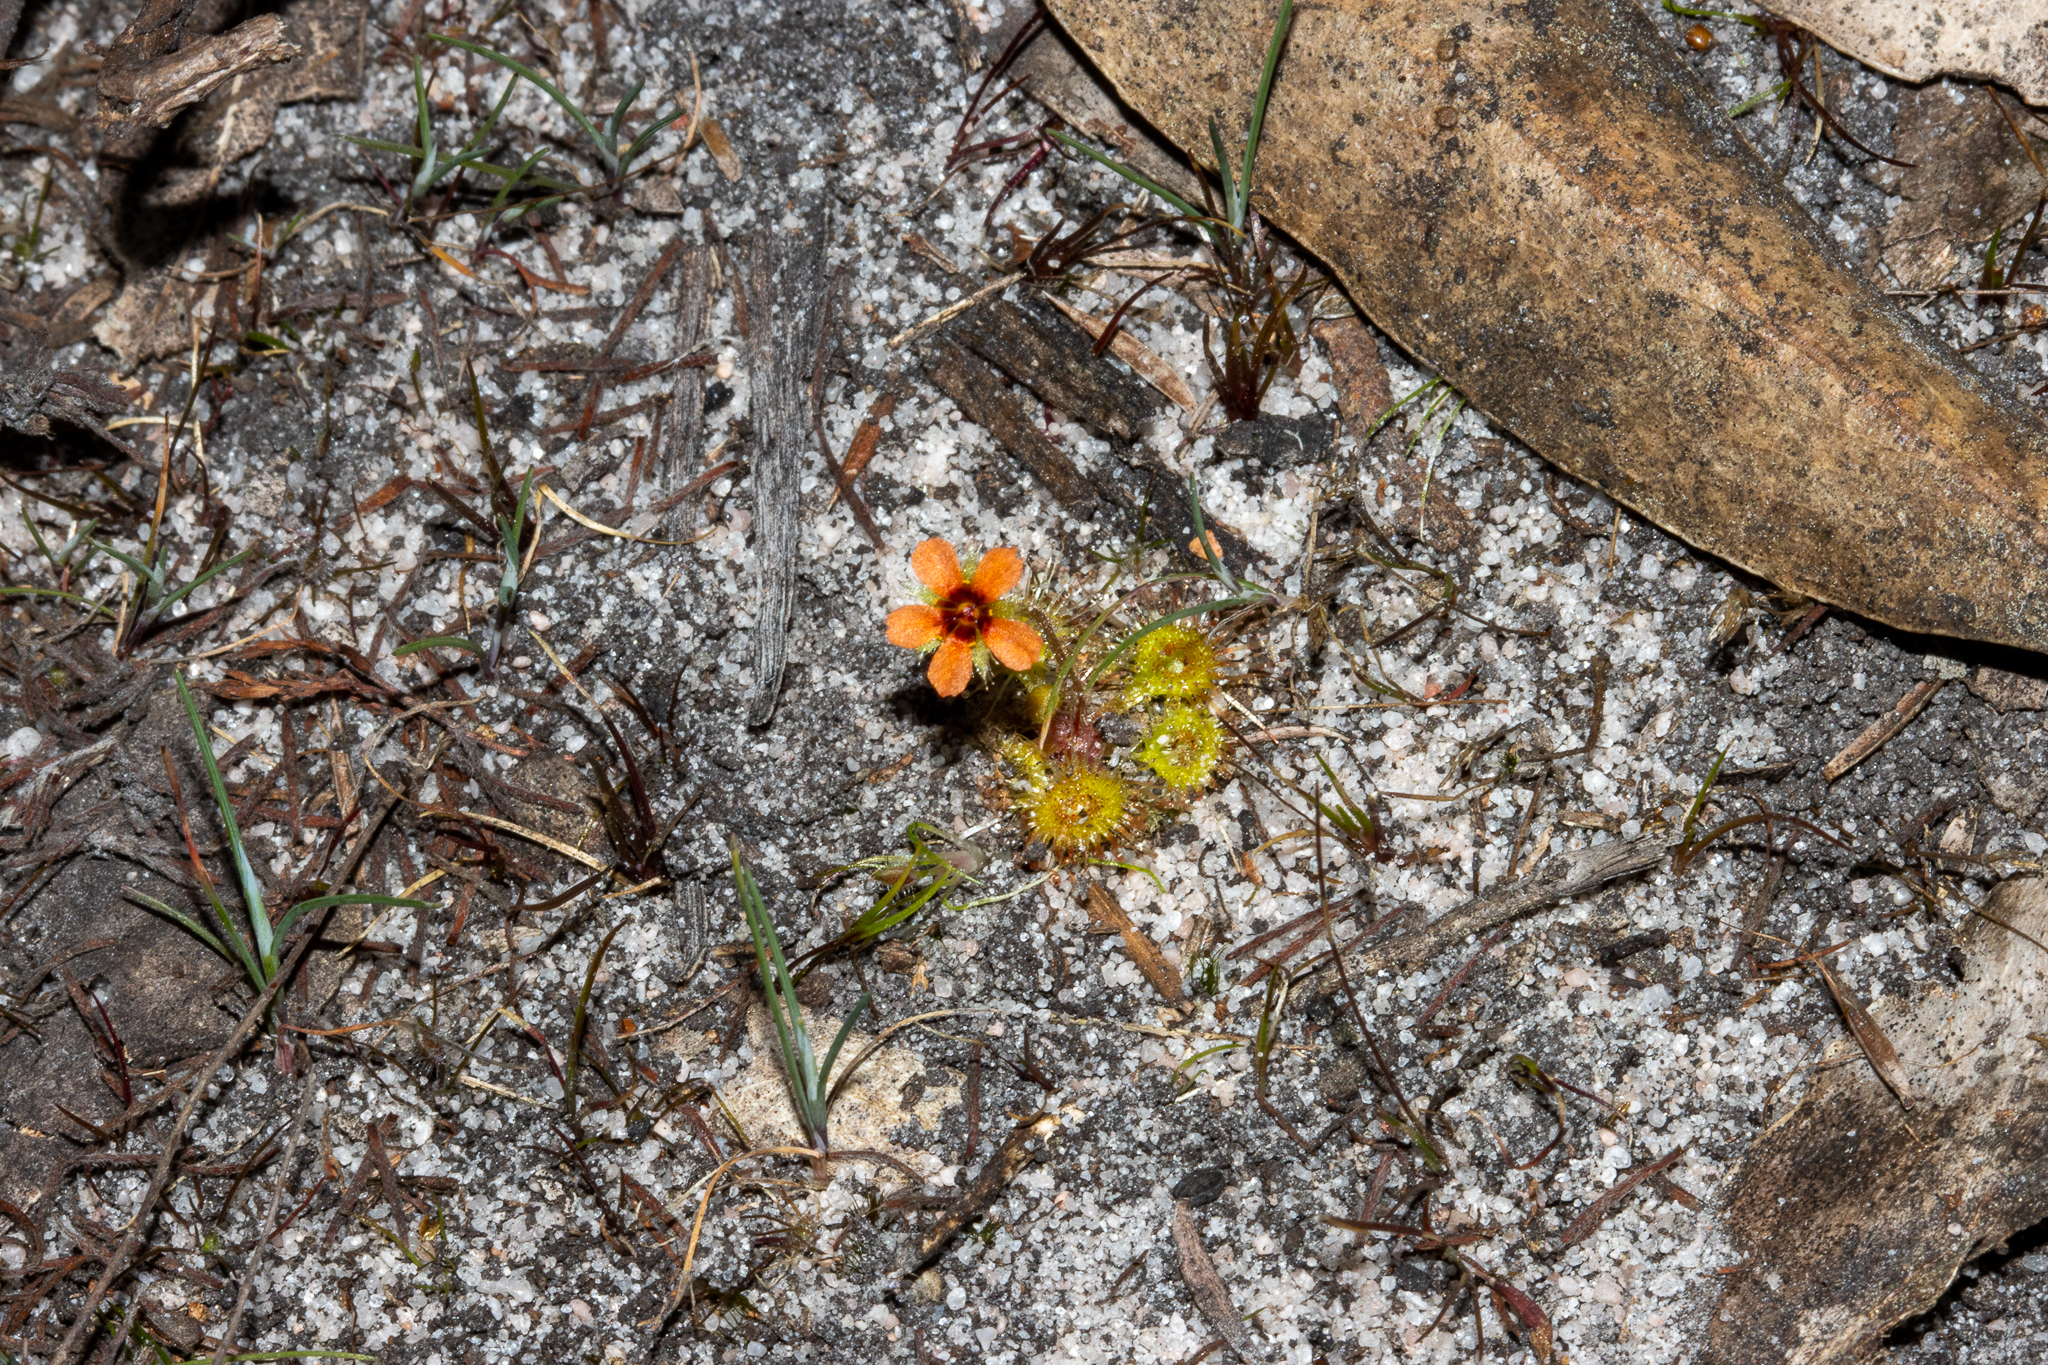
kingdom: Plantae
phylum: Tracheophyta
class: Magnoliopsida
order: Caryophyllales
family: Droseraceae
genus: Drosera
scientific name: Drosera glanduligera
